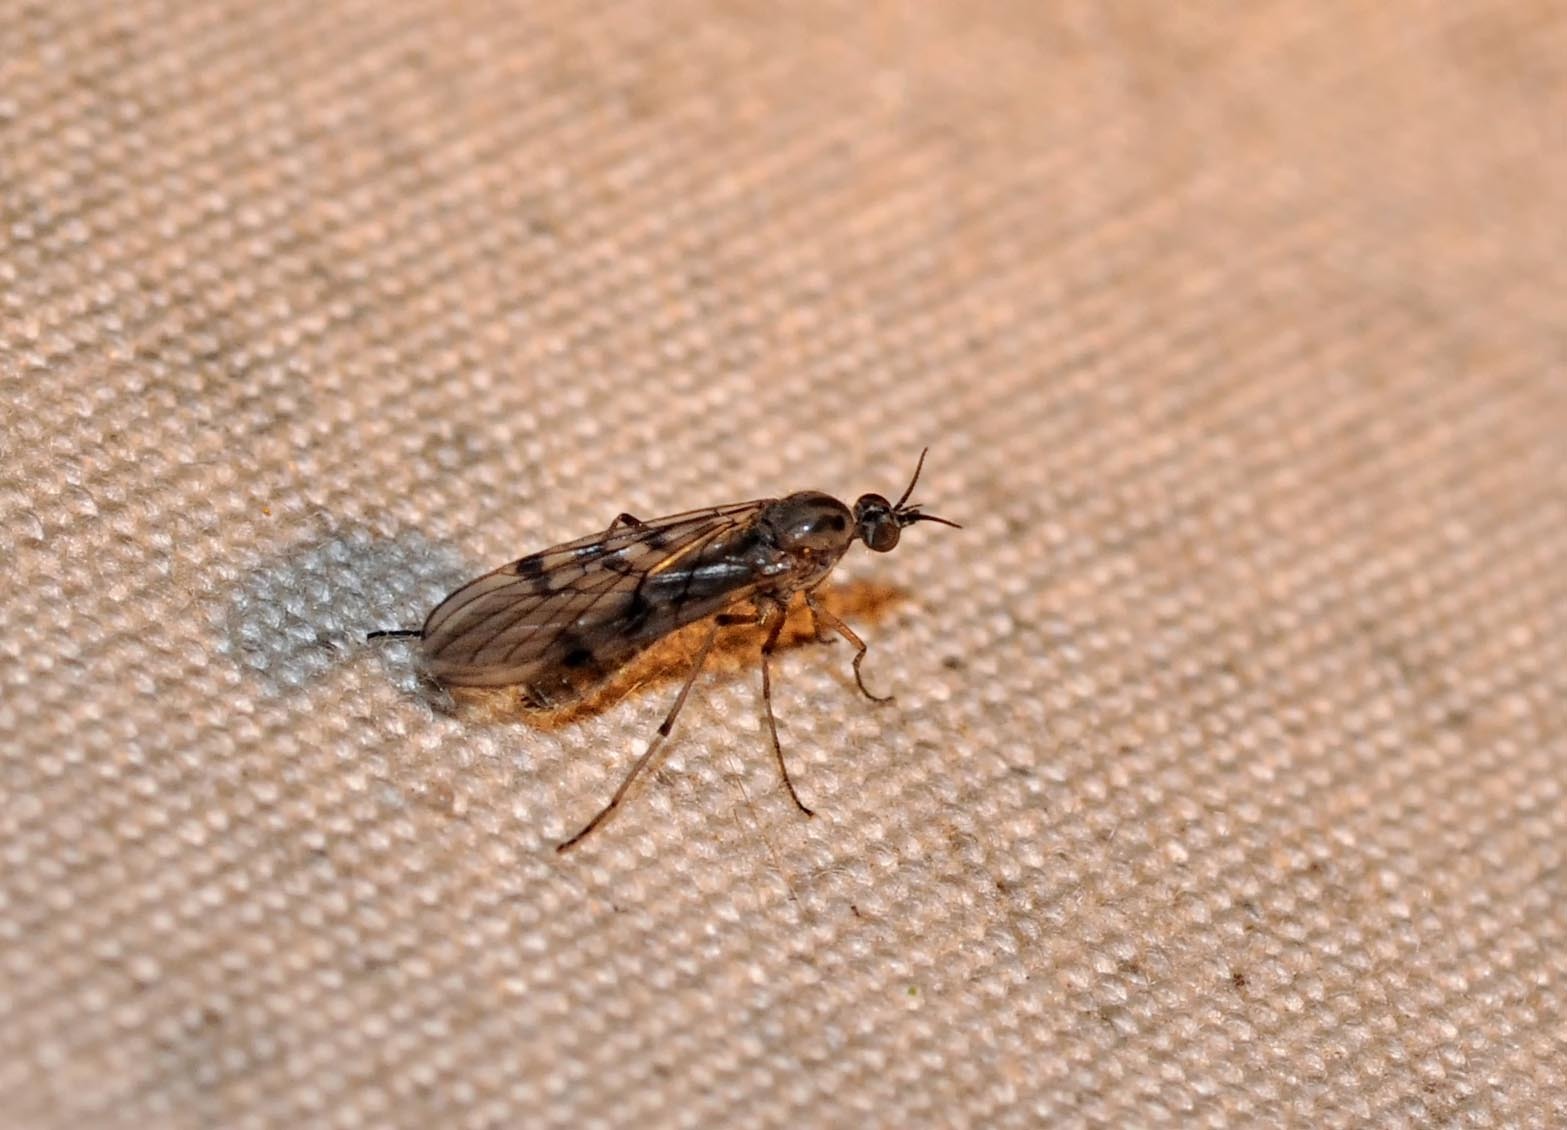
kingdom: Animalia
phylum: Arthropoda
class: Insecta
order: Diptera
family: Anisopodidae
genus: Sylvicola
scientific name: Sylvicola punctatus
